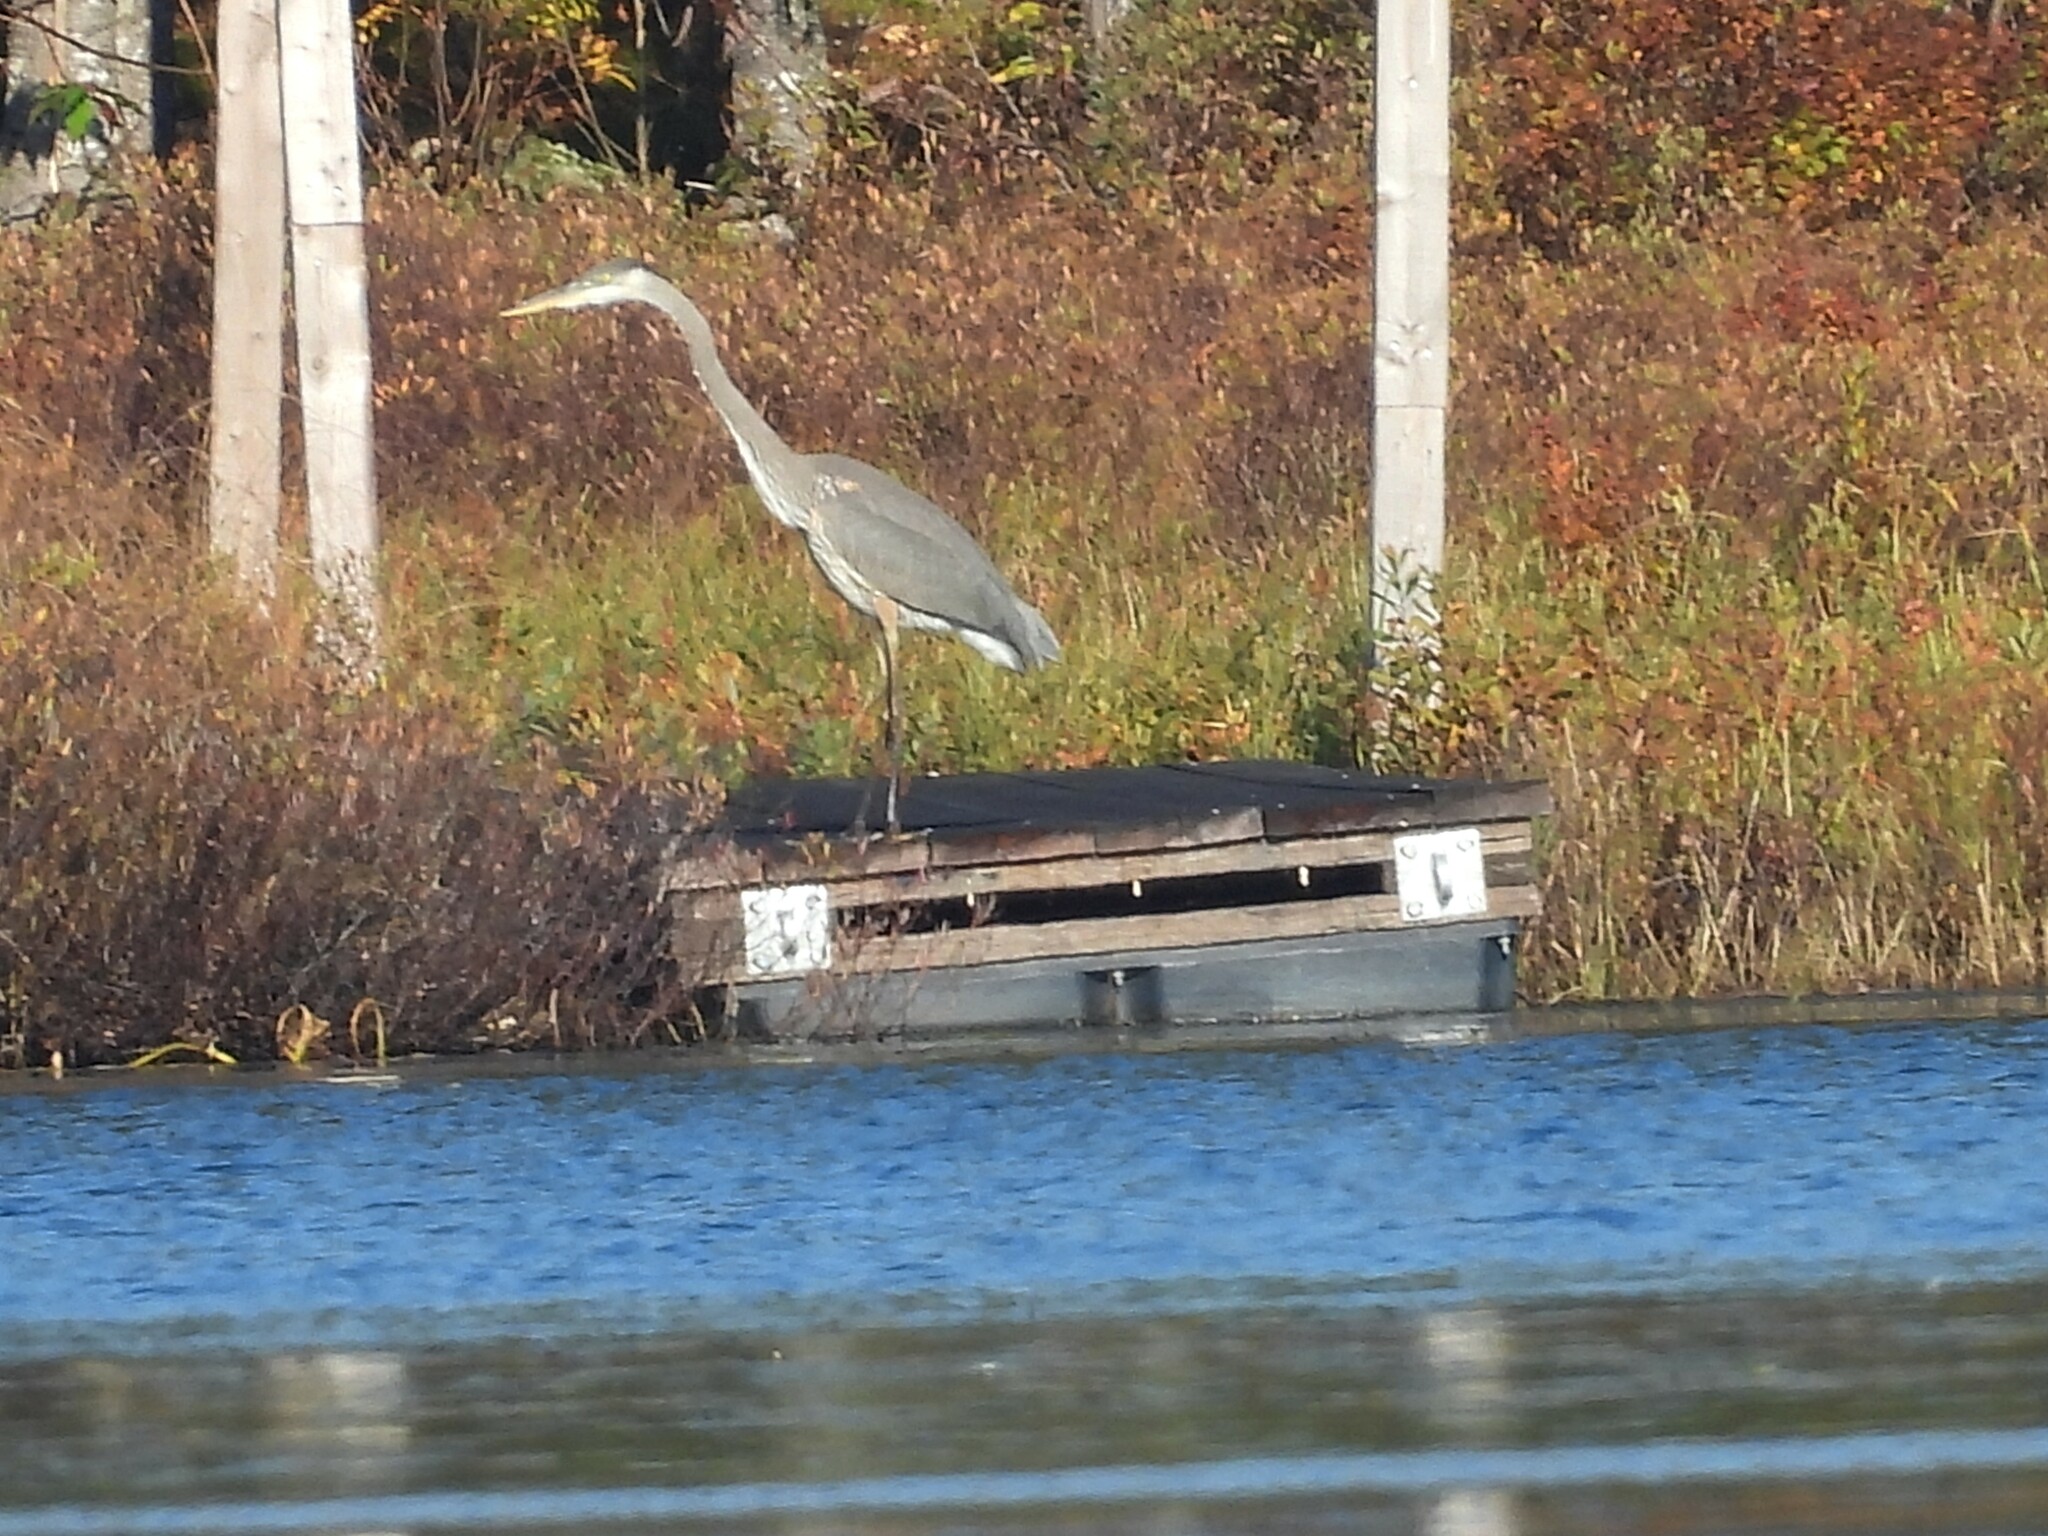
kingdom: Animalia
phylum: Chordata
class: Aves
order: Pelecaniformes
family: Ardeidae
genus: Ardea
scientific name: Ardea herodias
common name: Great blue heron
